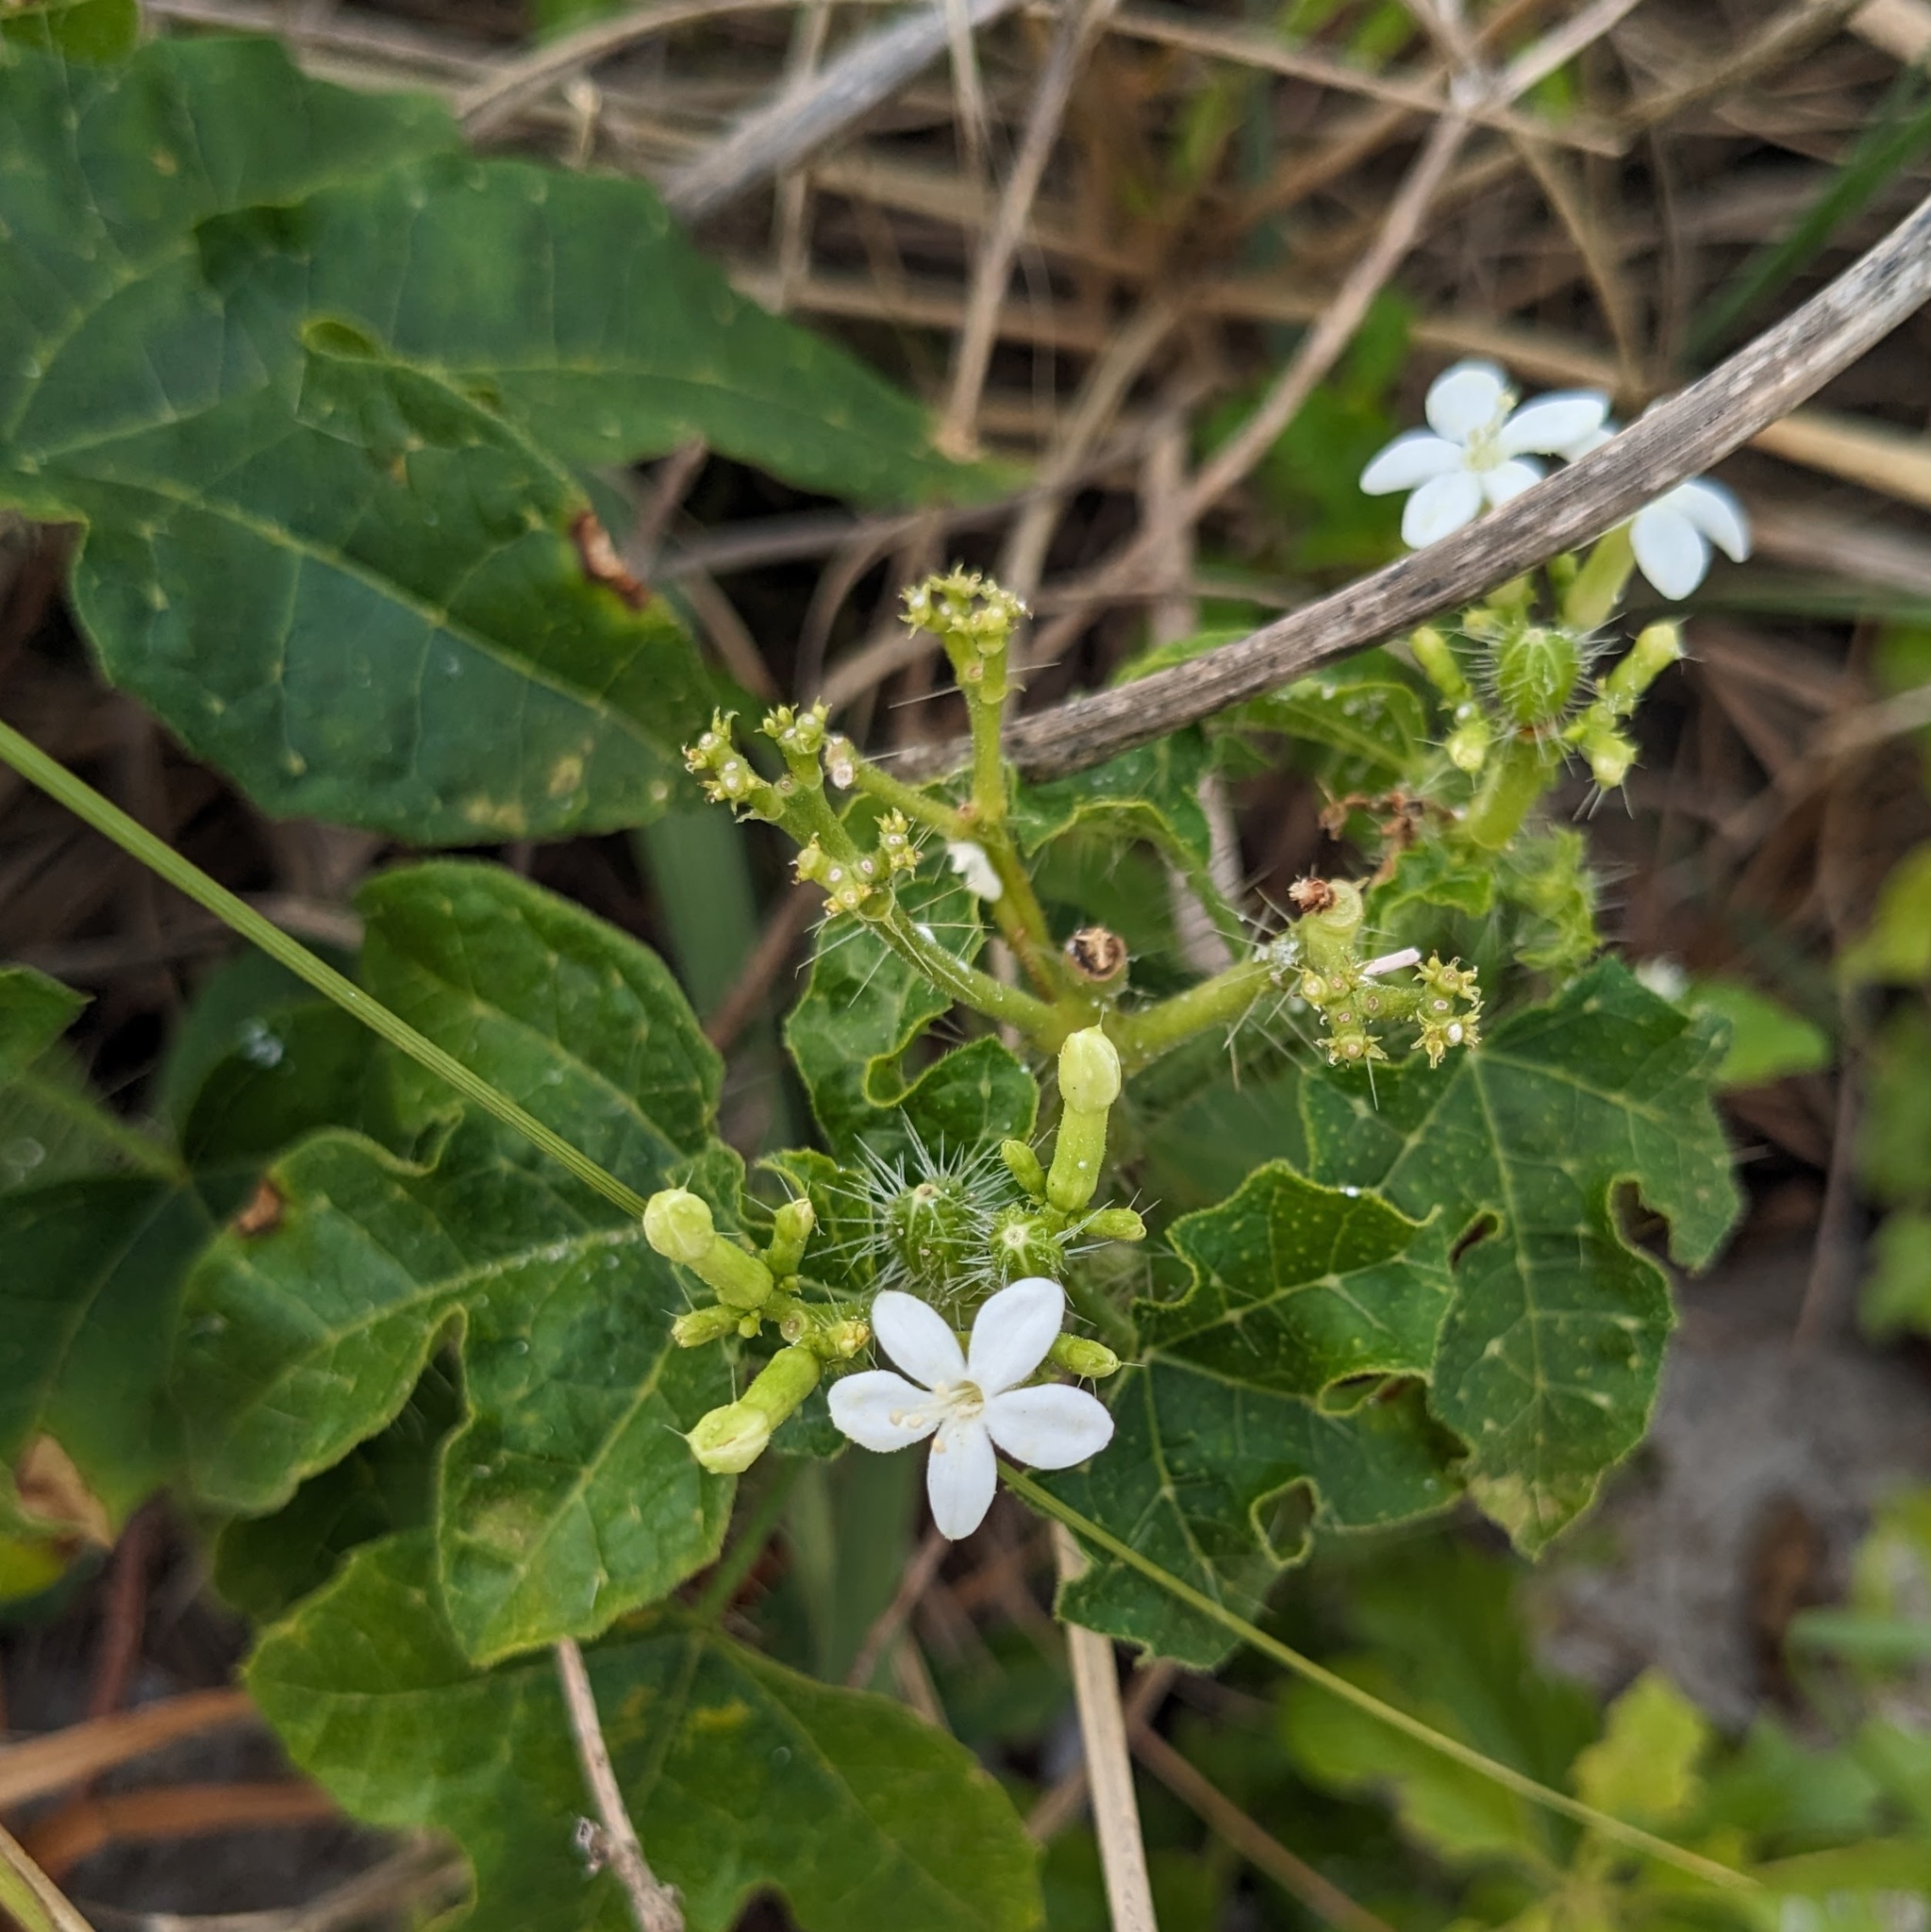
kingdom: Plantae
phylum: Tracheophyta
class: Magnoliopsida
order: Malpighiales
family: Euphorbiaceae
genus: Cnidoscolus
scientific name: Cnidoscolus stimulosus
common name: Bull-nettle
